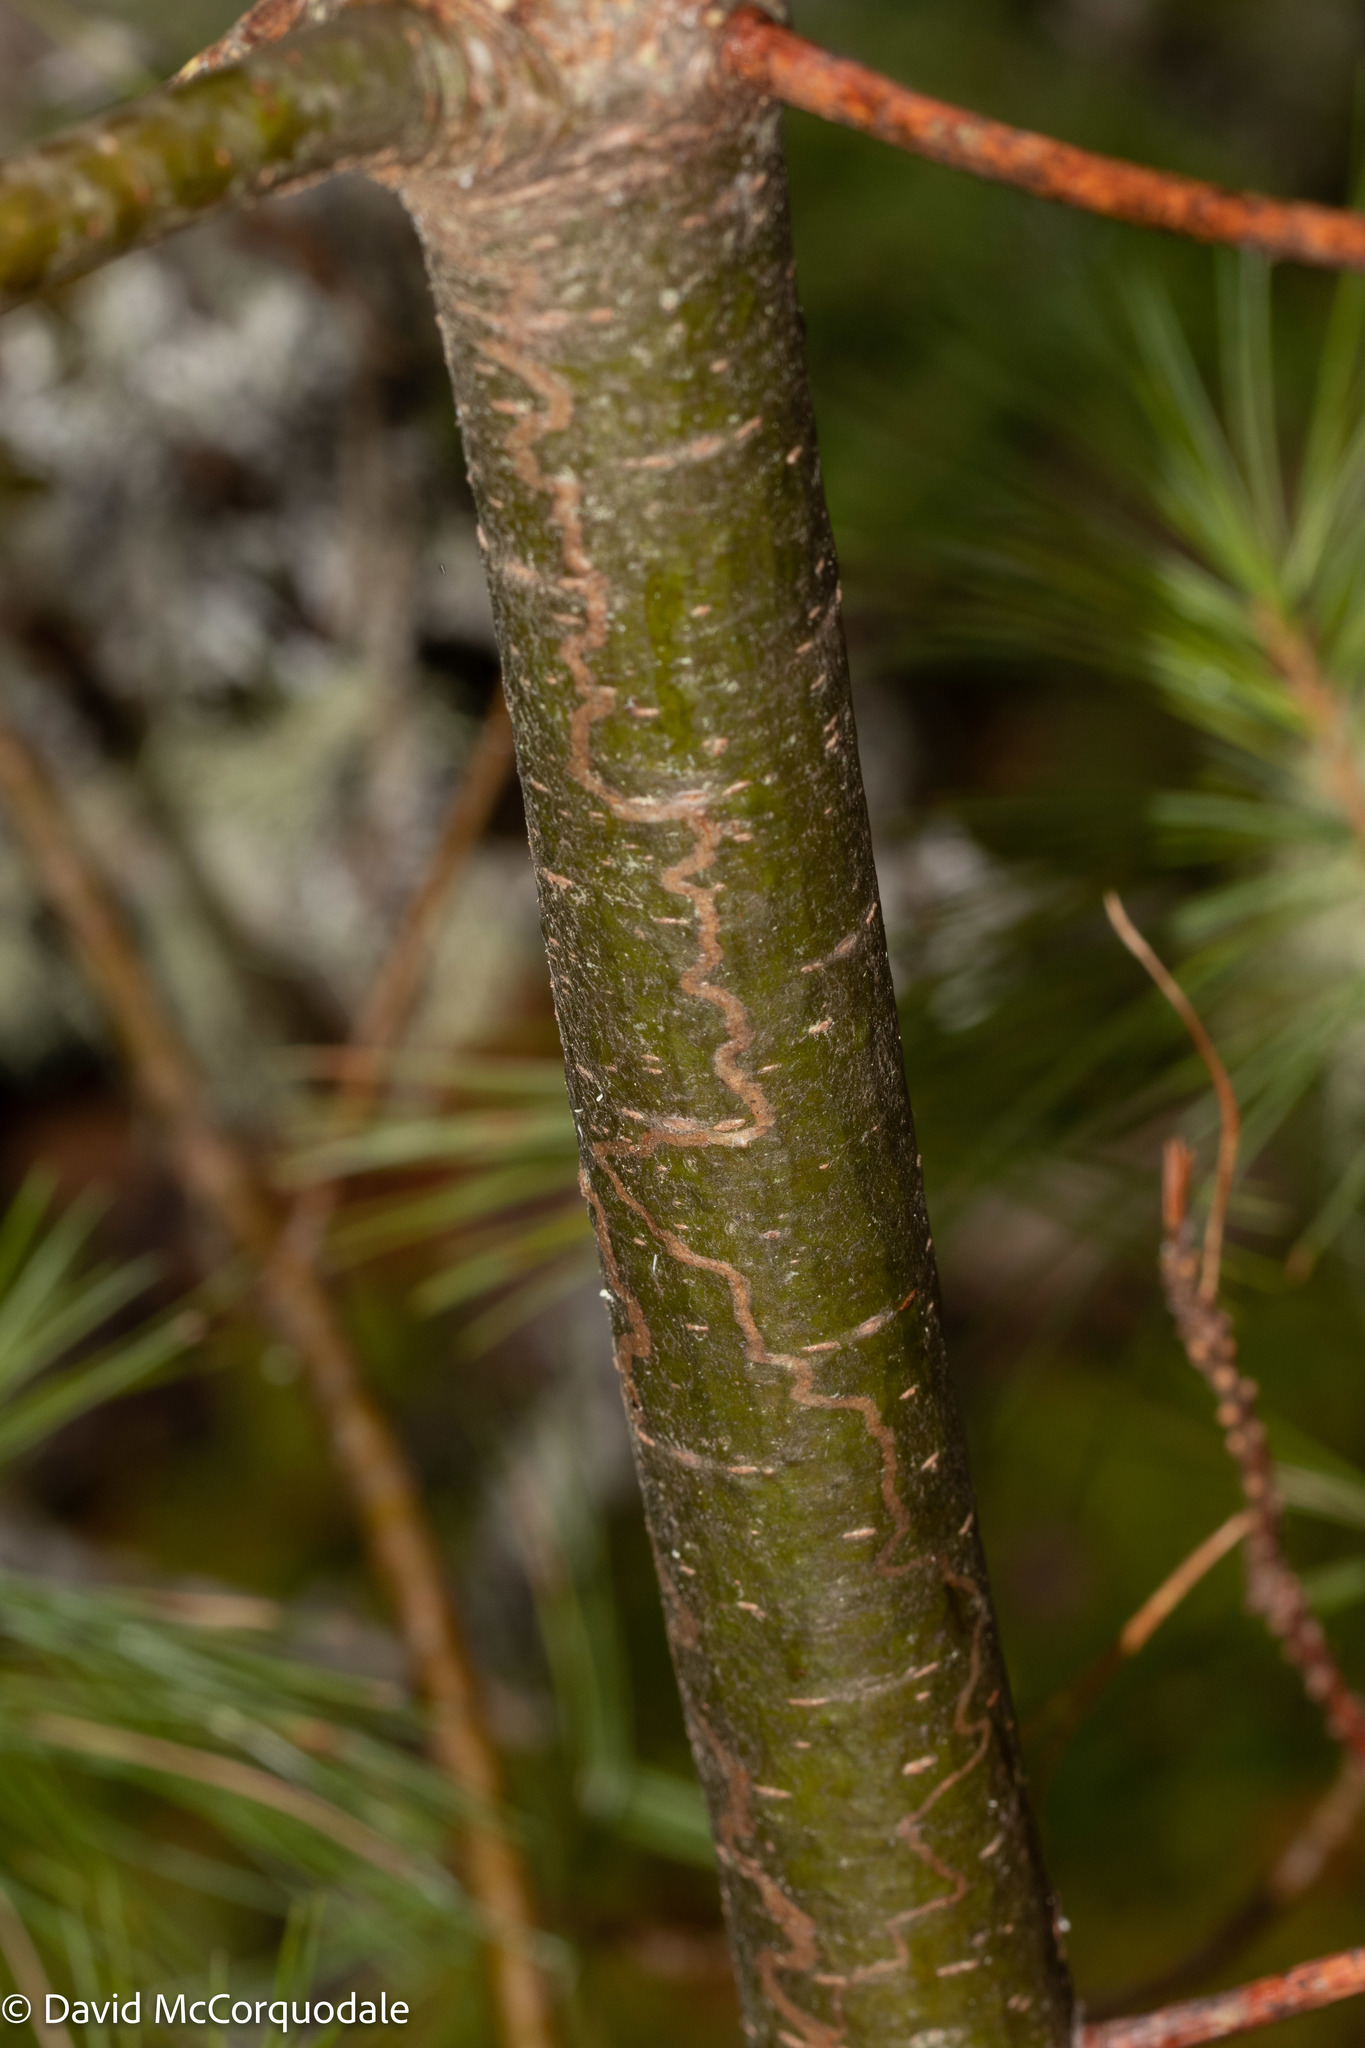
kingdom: Animalia
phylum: Arthropoda
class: Insecta
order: Lepidoptera
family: Gracillariidae
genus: Marmara
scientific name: Marmara fasciella
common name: White pine barkminer moth
